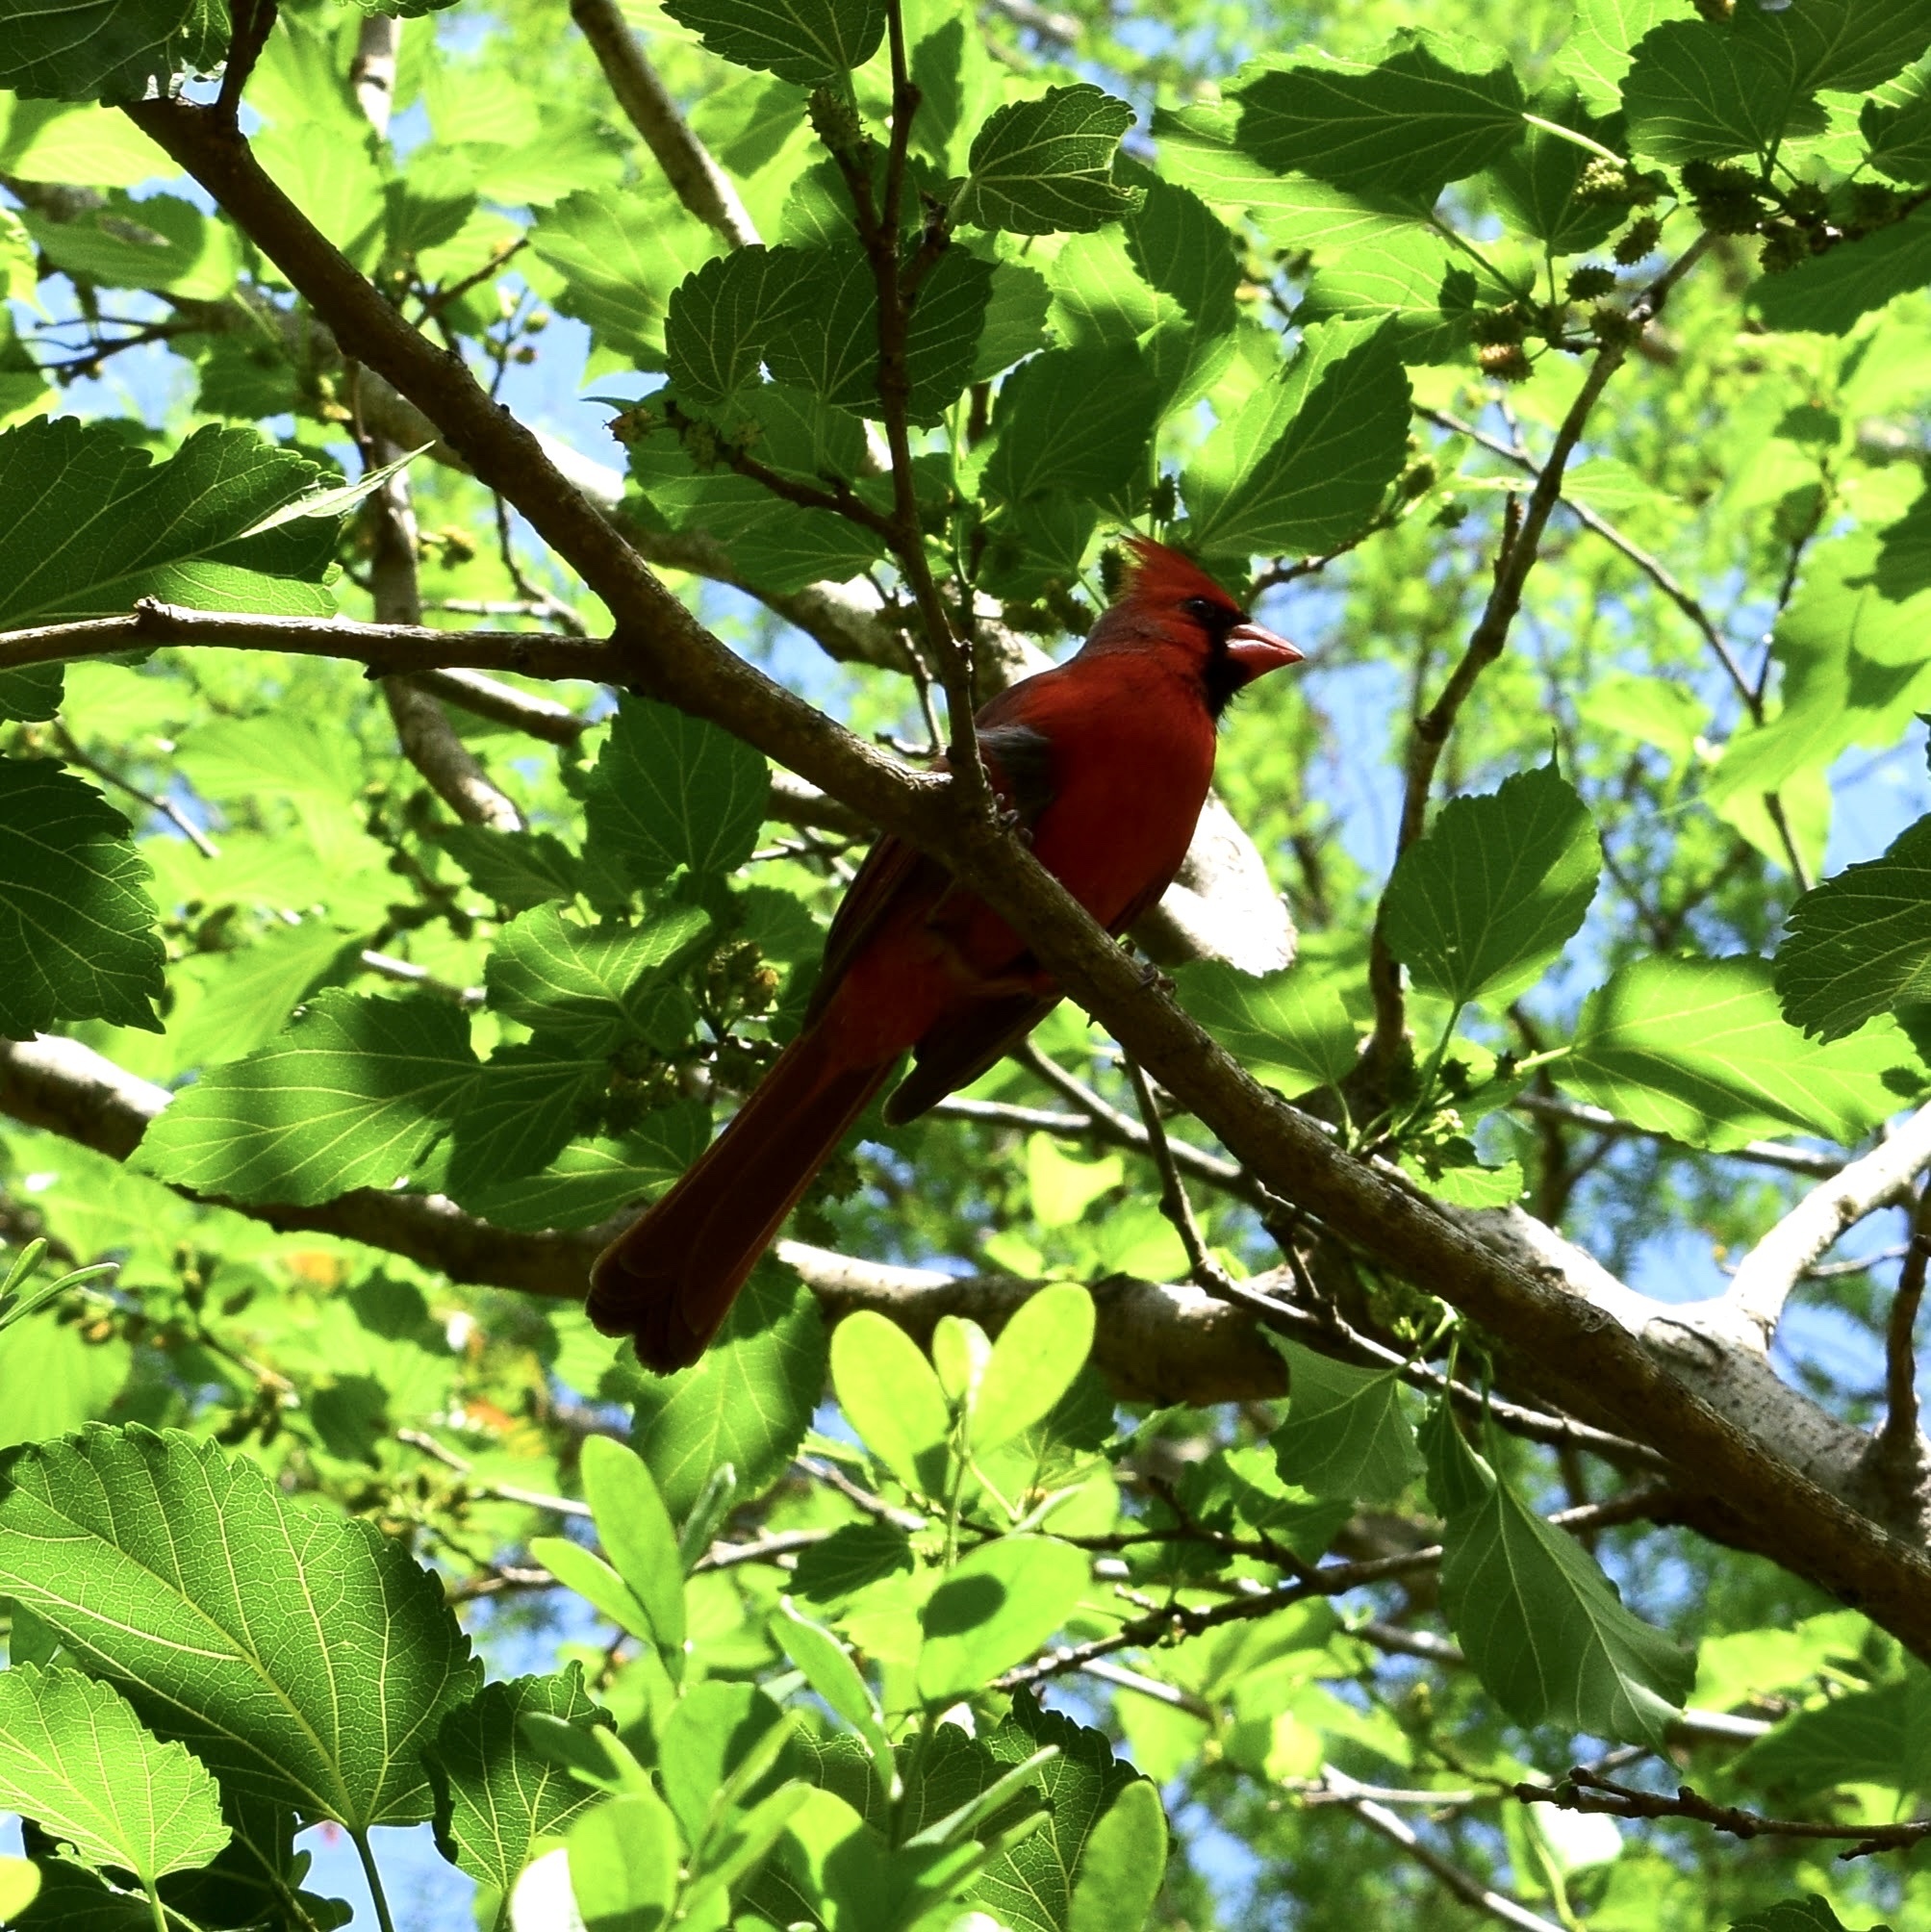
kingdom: Animalia
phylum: Chordata
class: Aves
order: Passeriformes
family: Cardinalidae
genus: Cardinalis
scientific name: Cardinalis cardinalis
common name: Northern cardinal
